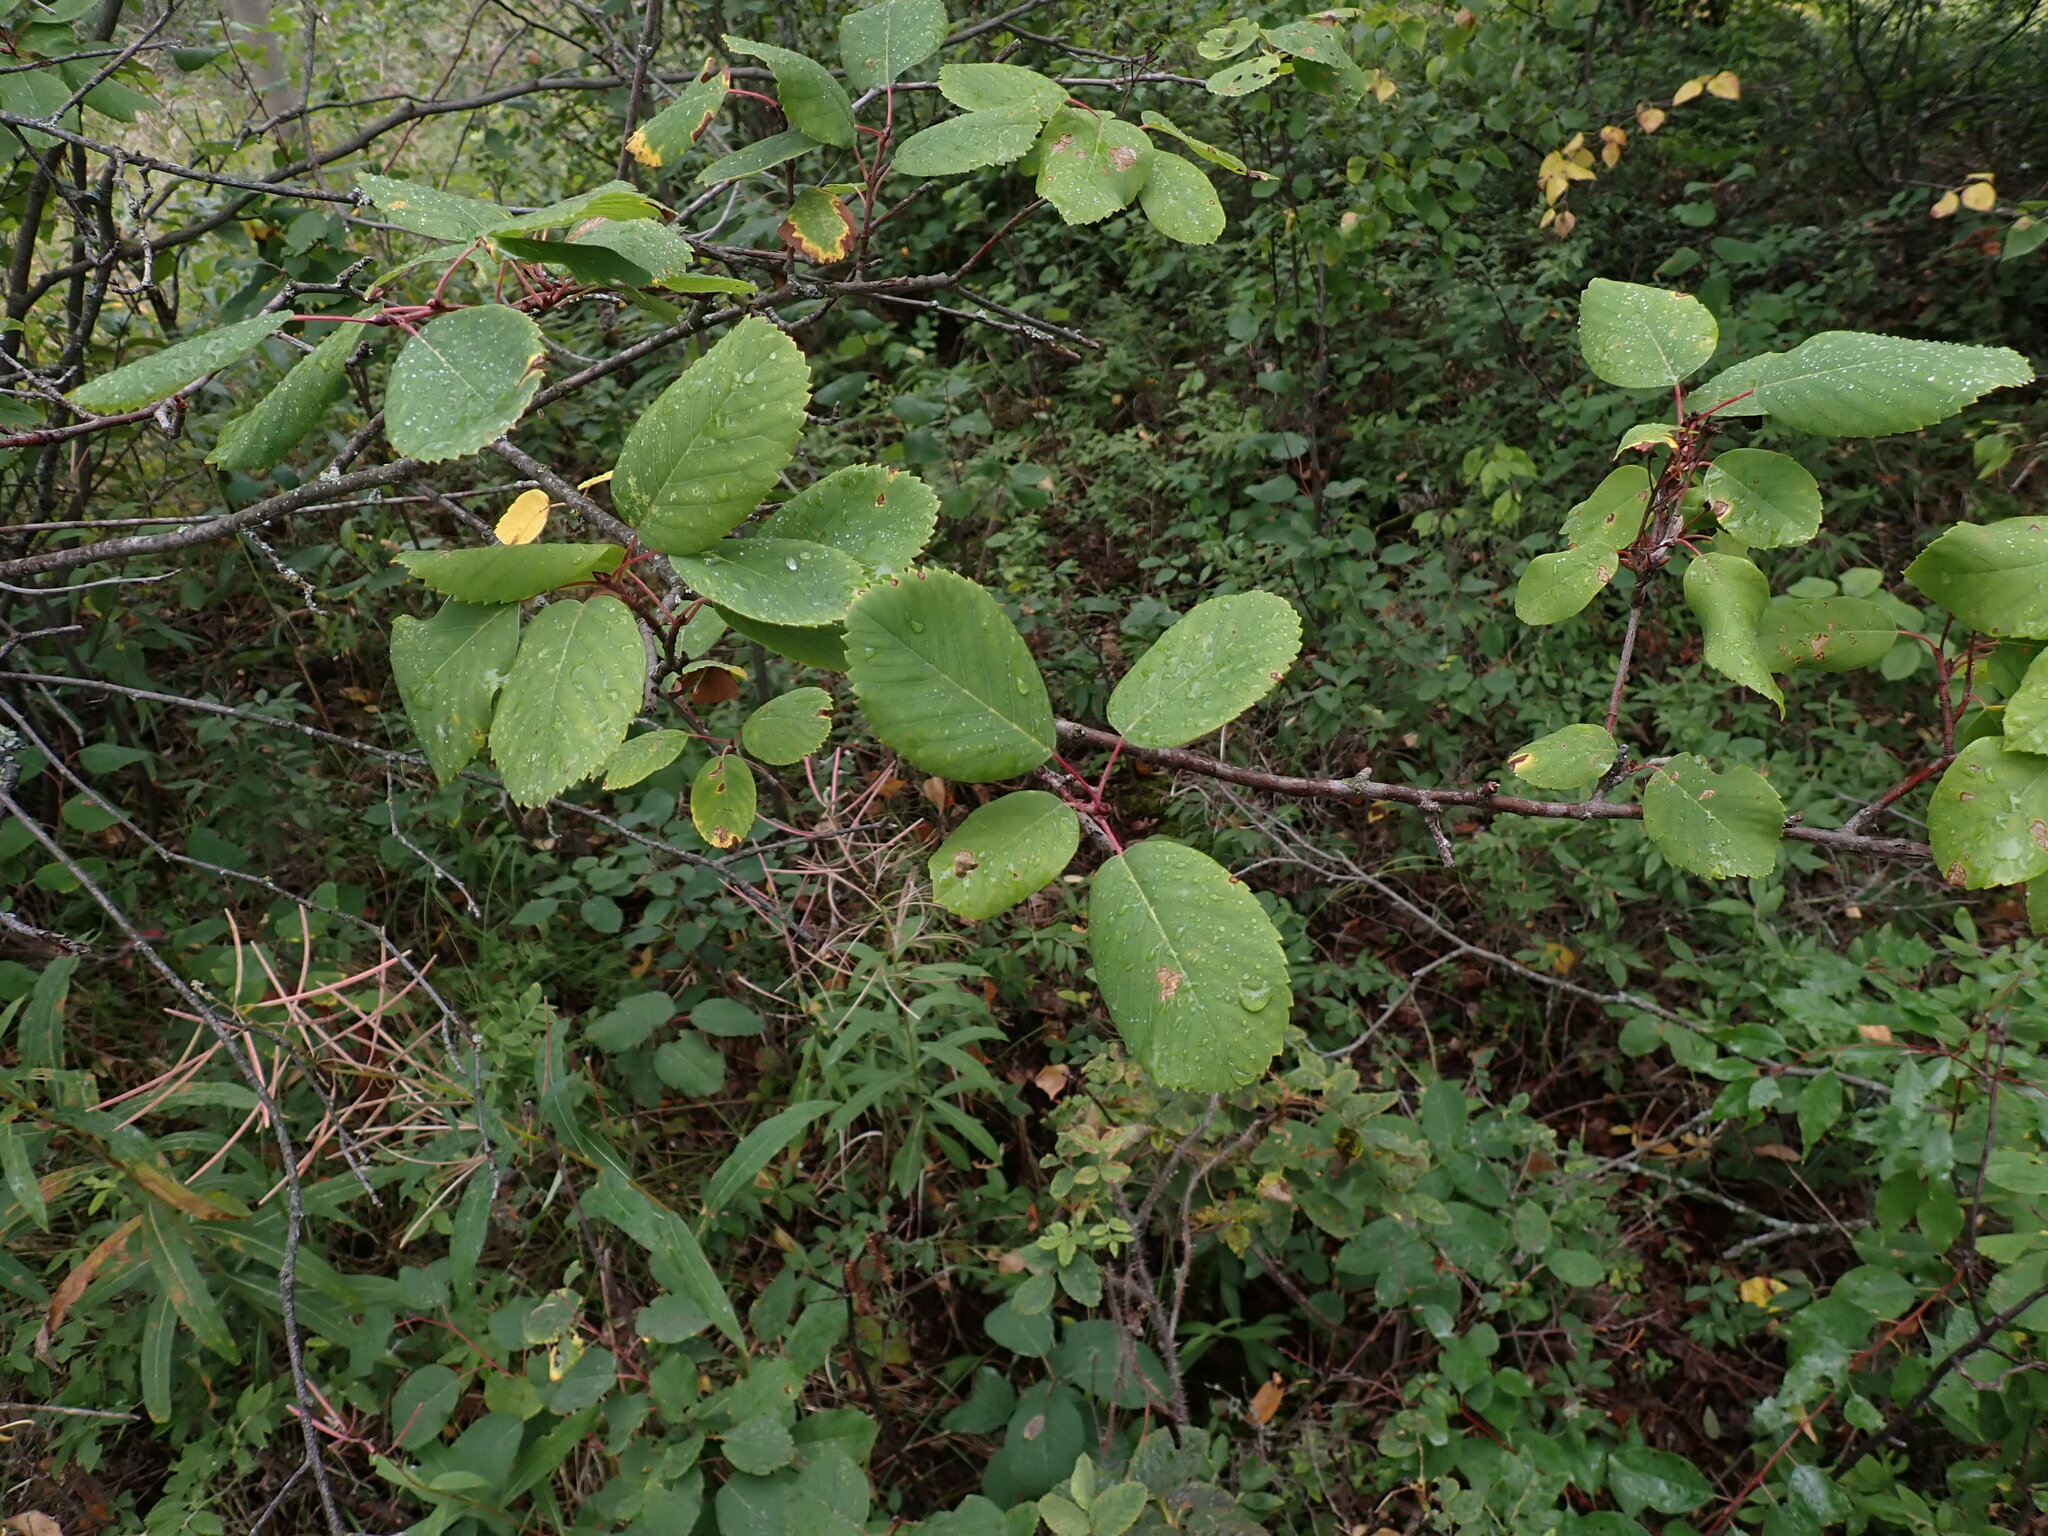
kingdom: Plantae
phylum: Tracheophyta
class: Magnoliopsida
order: Rosales
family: Rosaceae
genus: Amelanchier
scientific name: Amelanchier alnifolia
